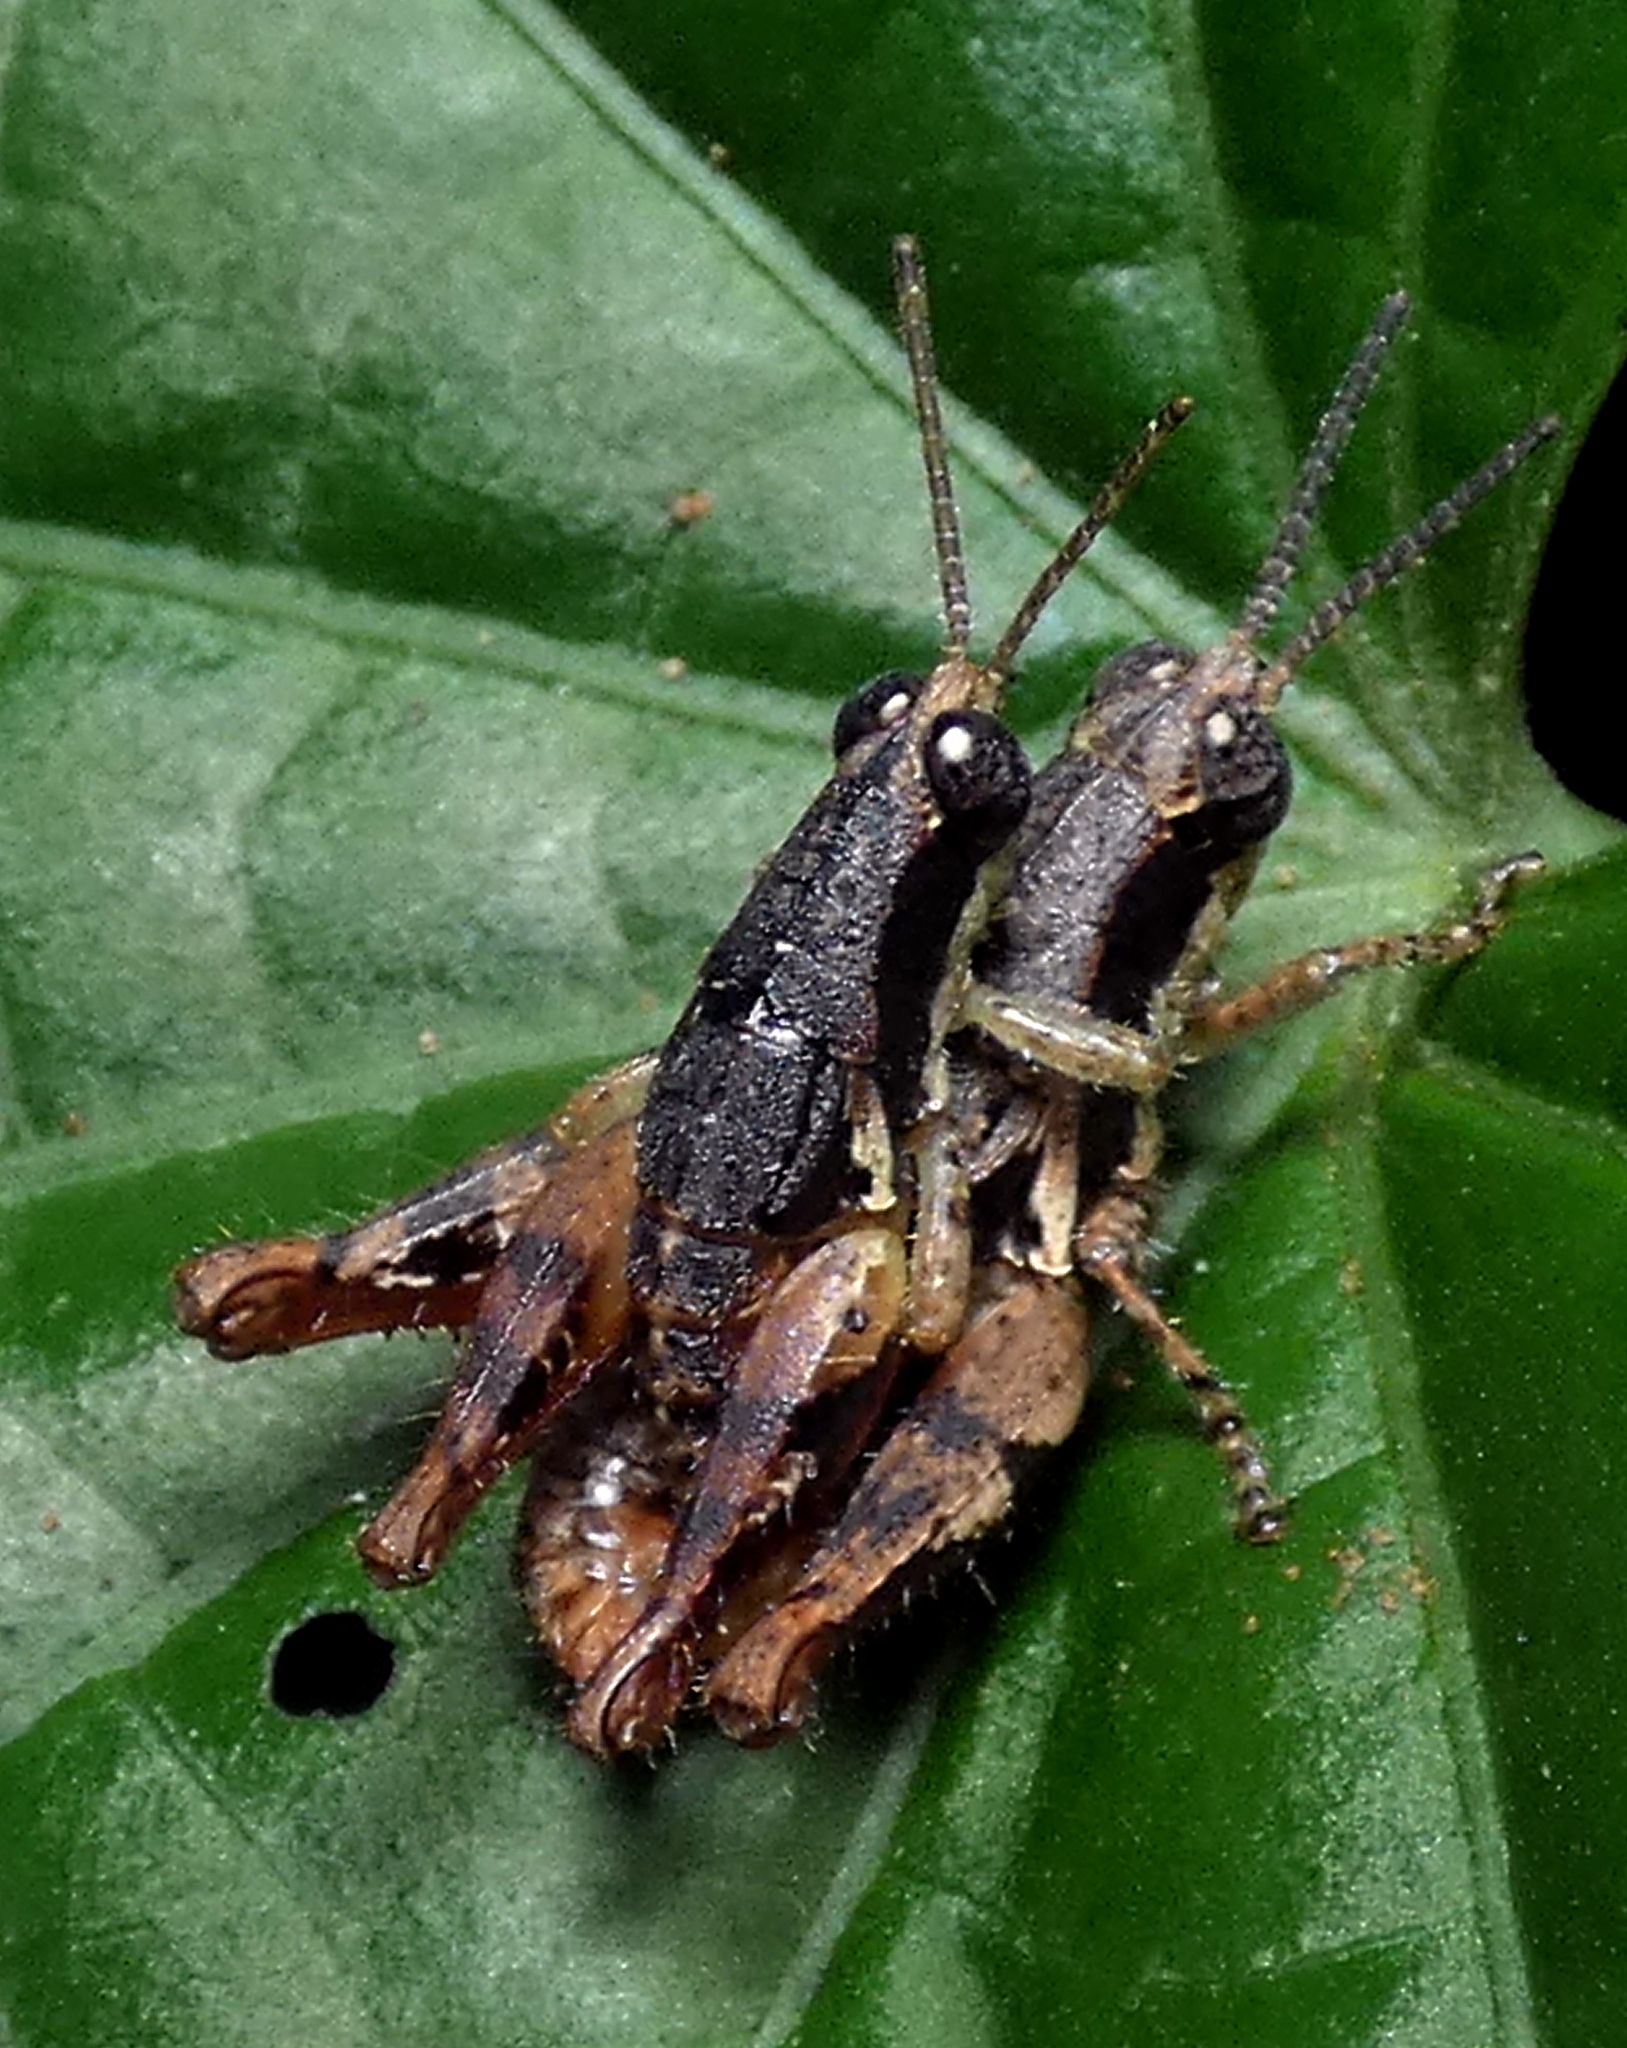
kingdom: Animalia
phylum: Arthropoda
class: Insecta
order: Orthoptera
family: Acrididae
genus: Eujivarus
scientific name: Eujivarus meridionalis
